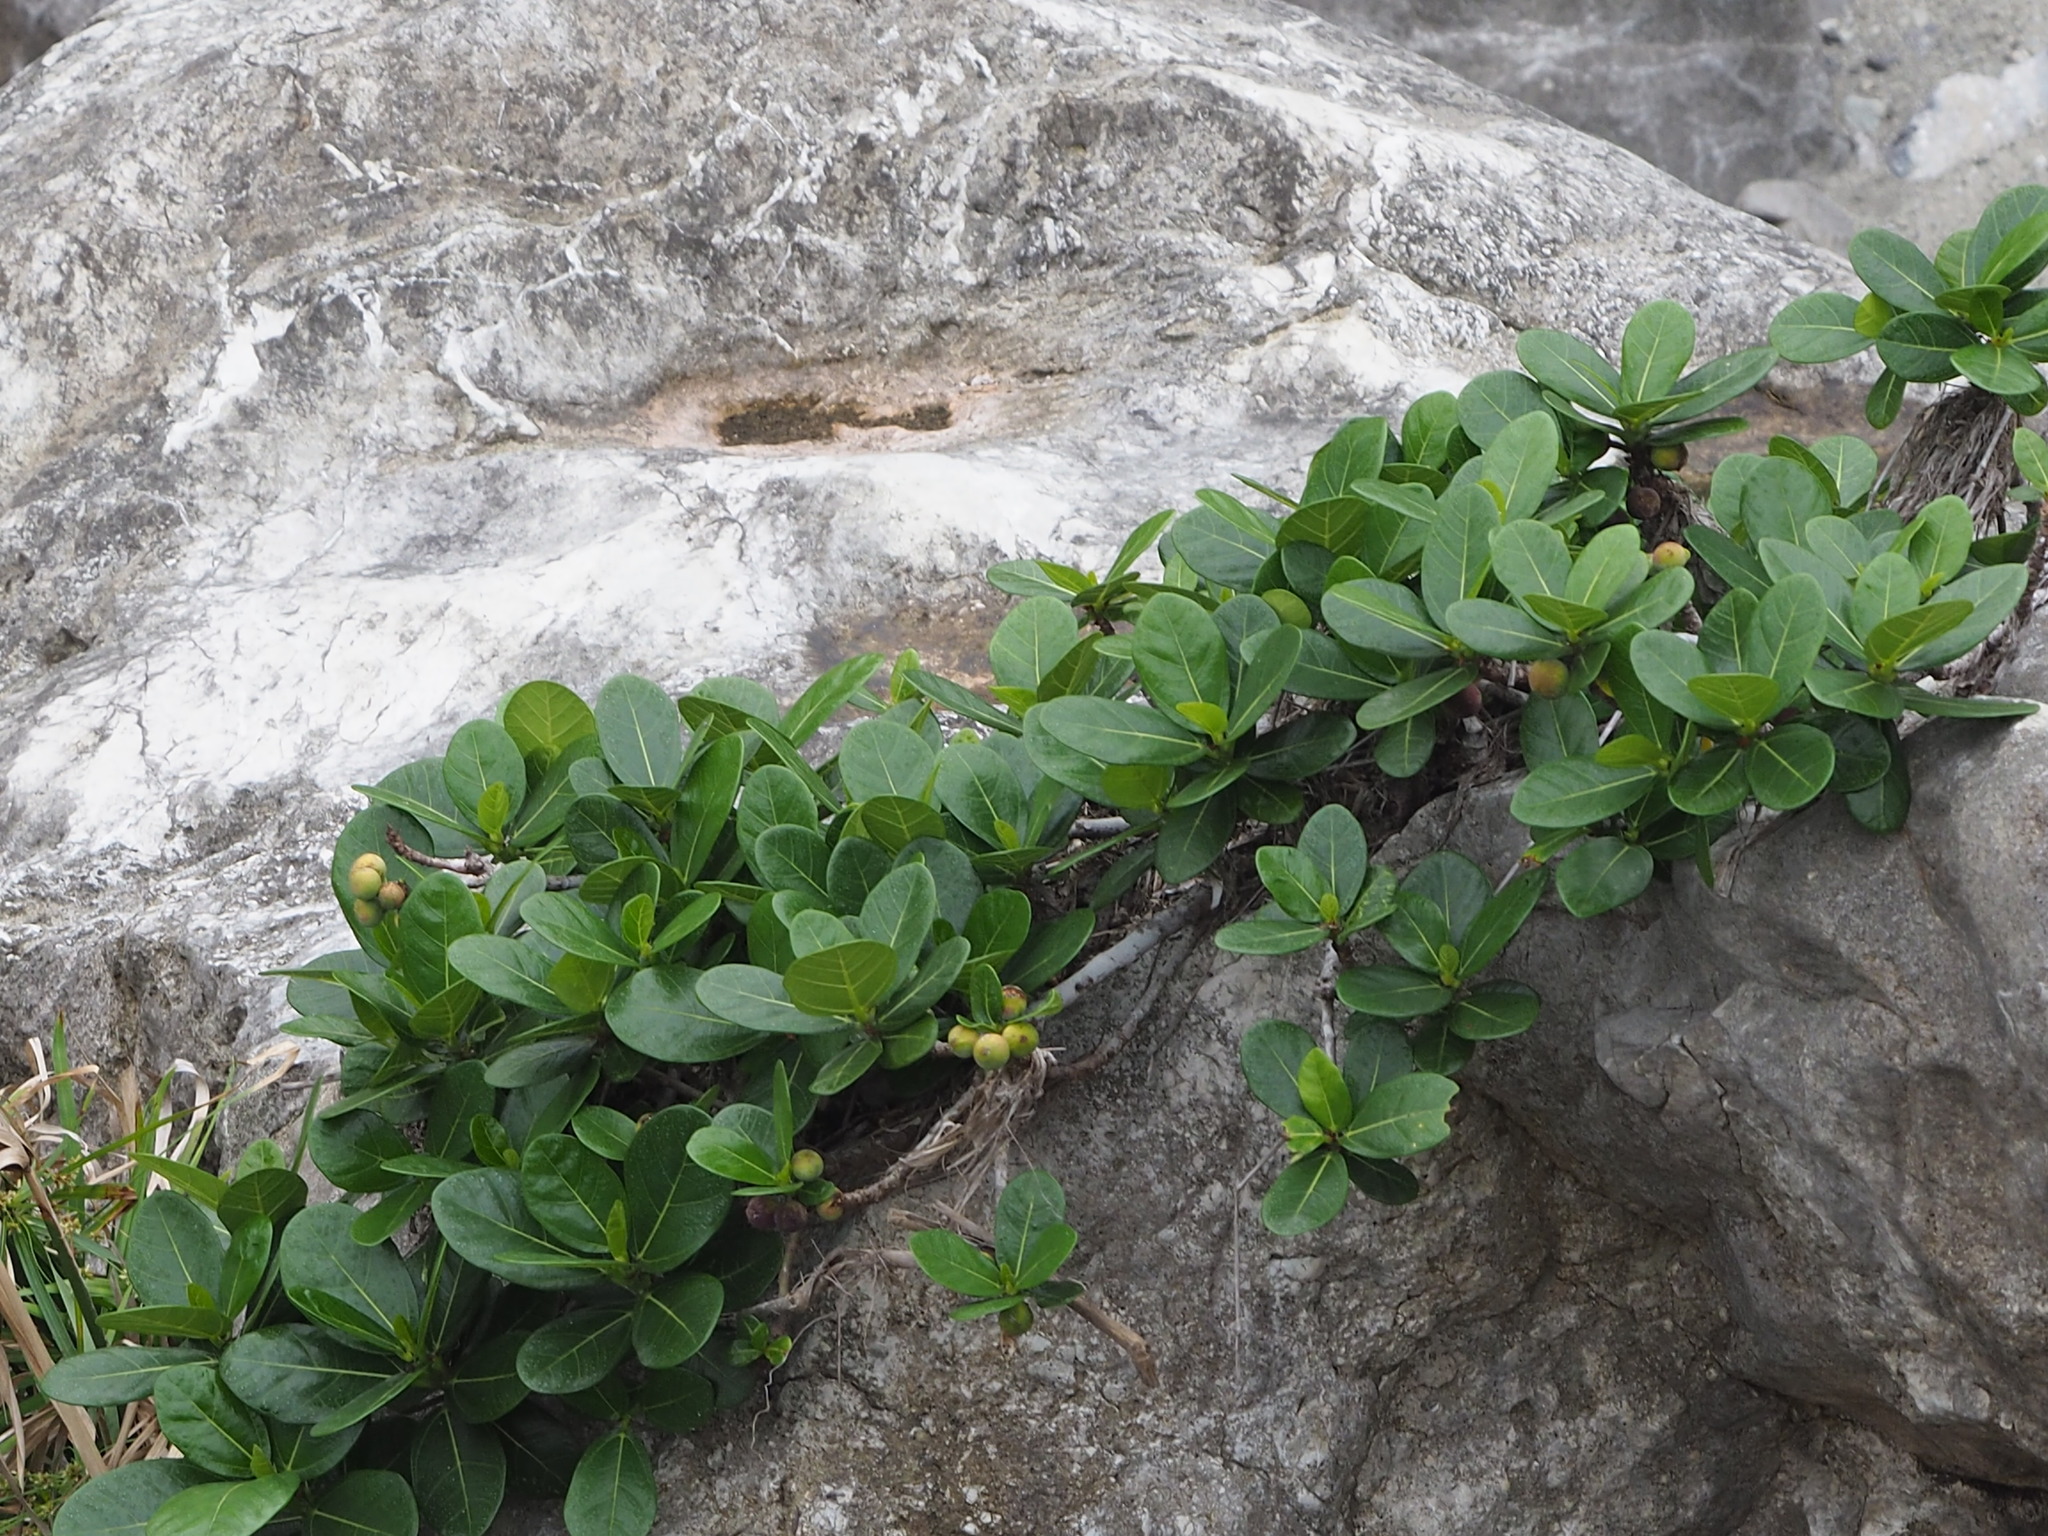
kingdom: Plantae
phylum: Tracheophyta
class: Magnoliopsida
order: Rosales
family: Moraceae
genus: Ficus
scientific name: Ficus pedunculosa
